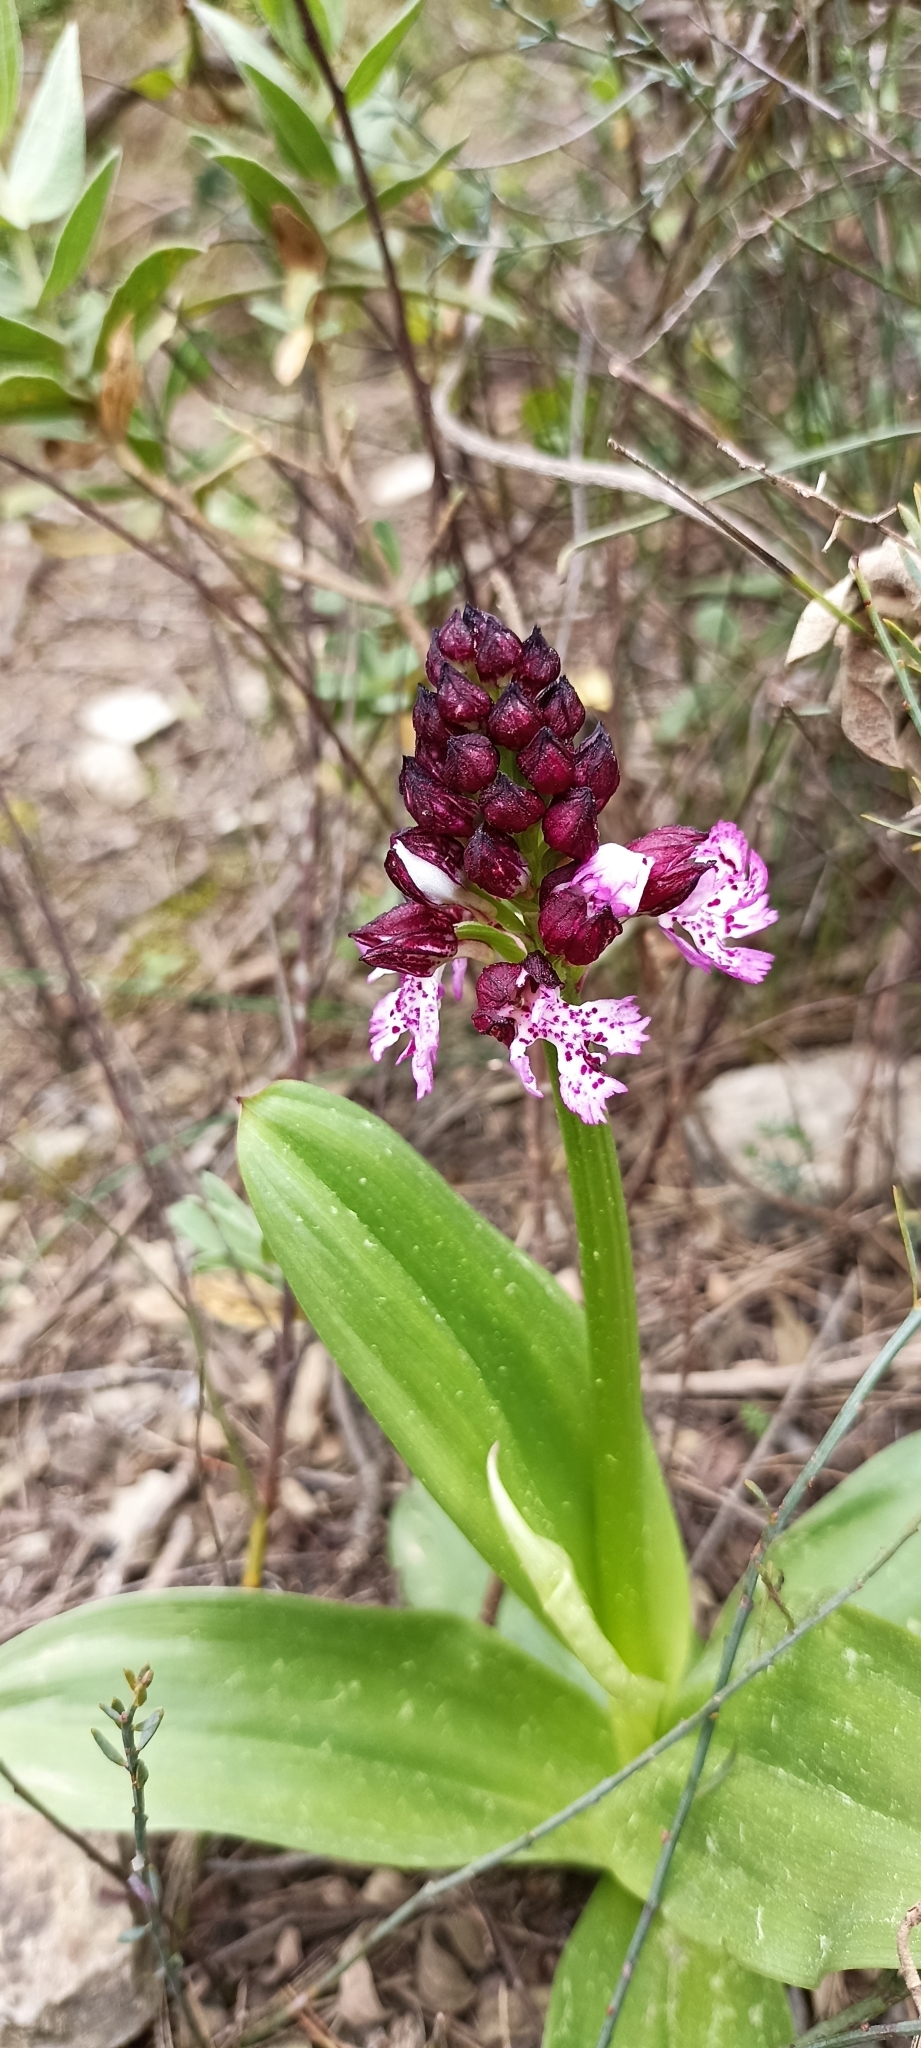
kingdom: Plantae
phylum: Tracheophyta
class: Liliopsida
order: Asparagales
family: Orchidaceae
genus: Orchis
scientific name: Orchis purpurea
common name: Lady orchid
